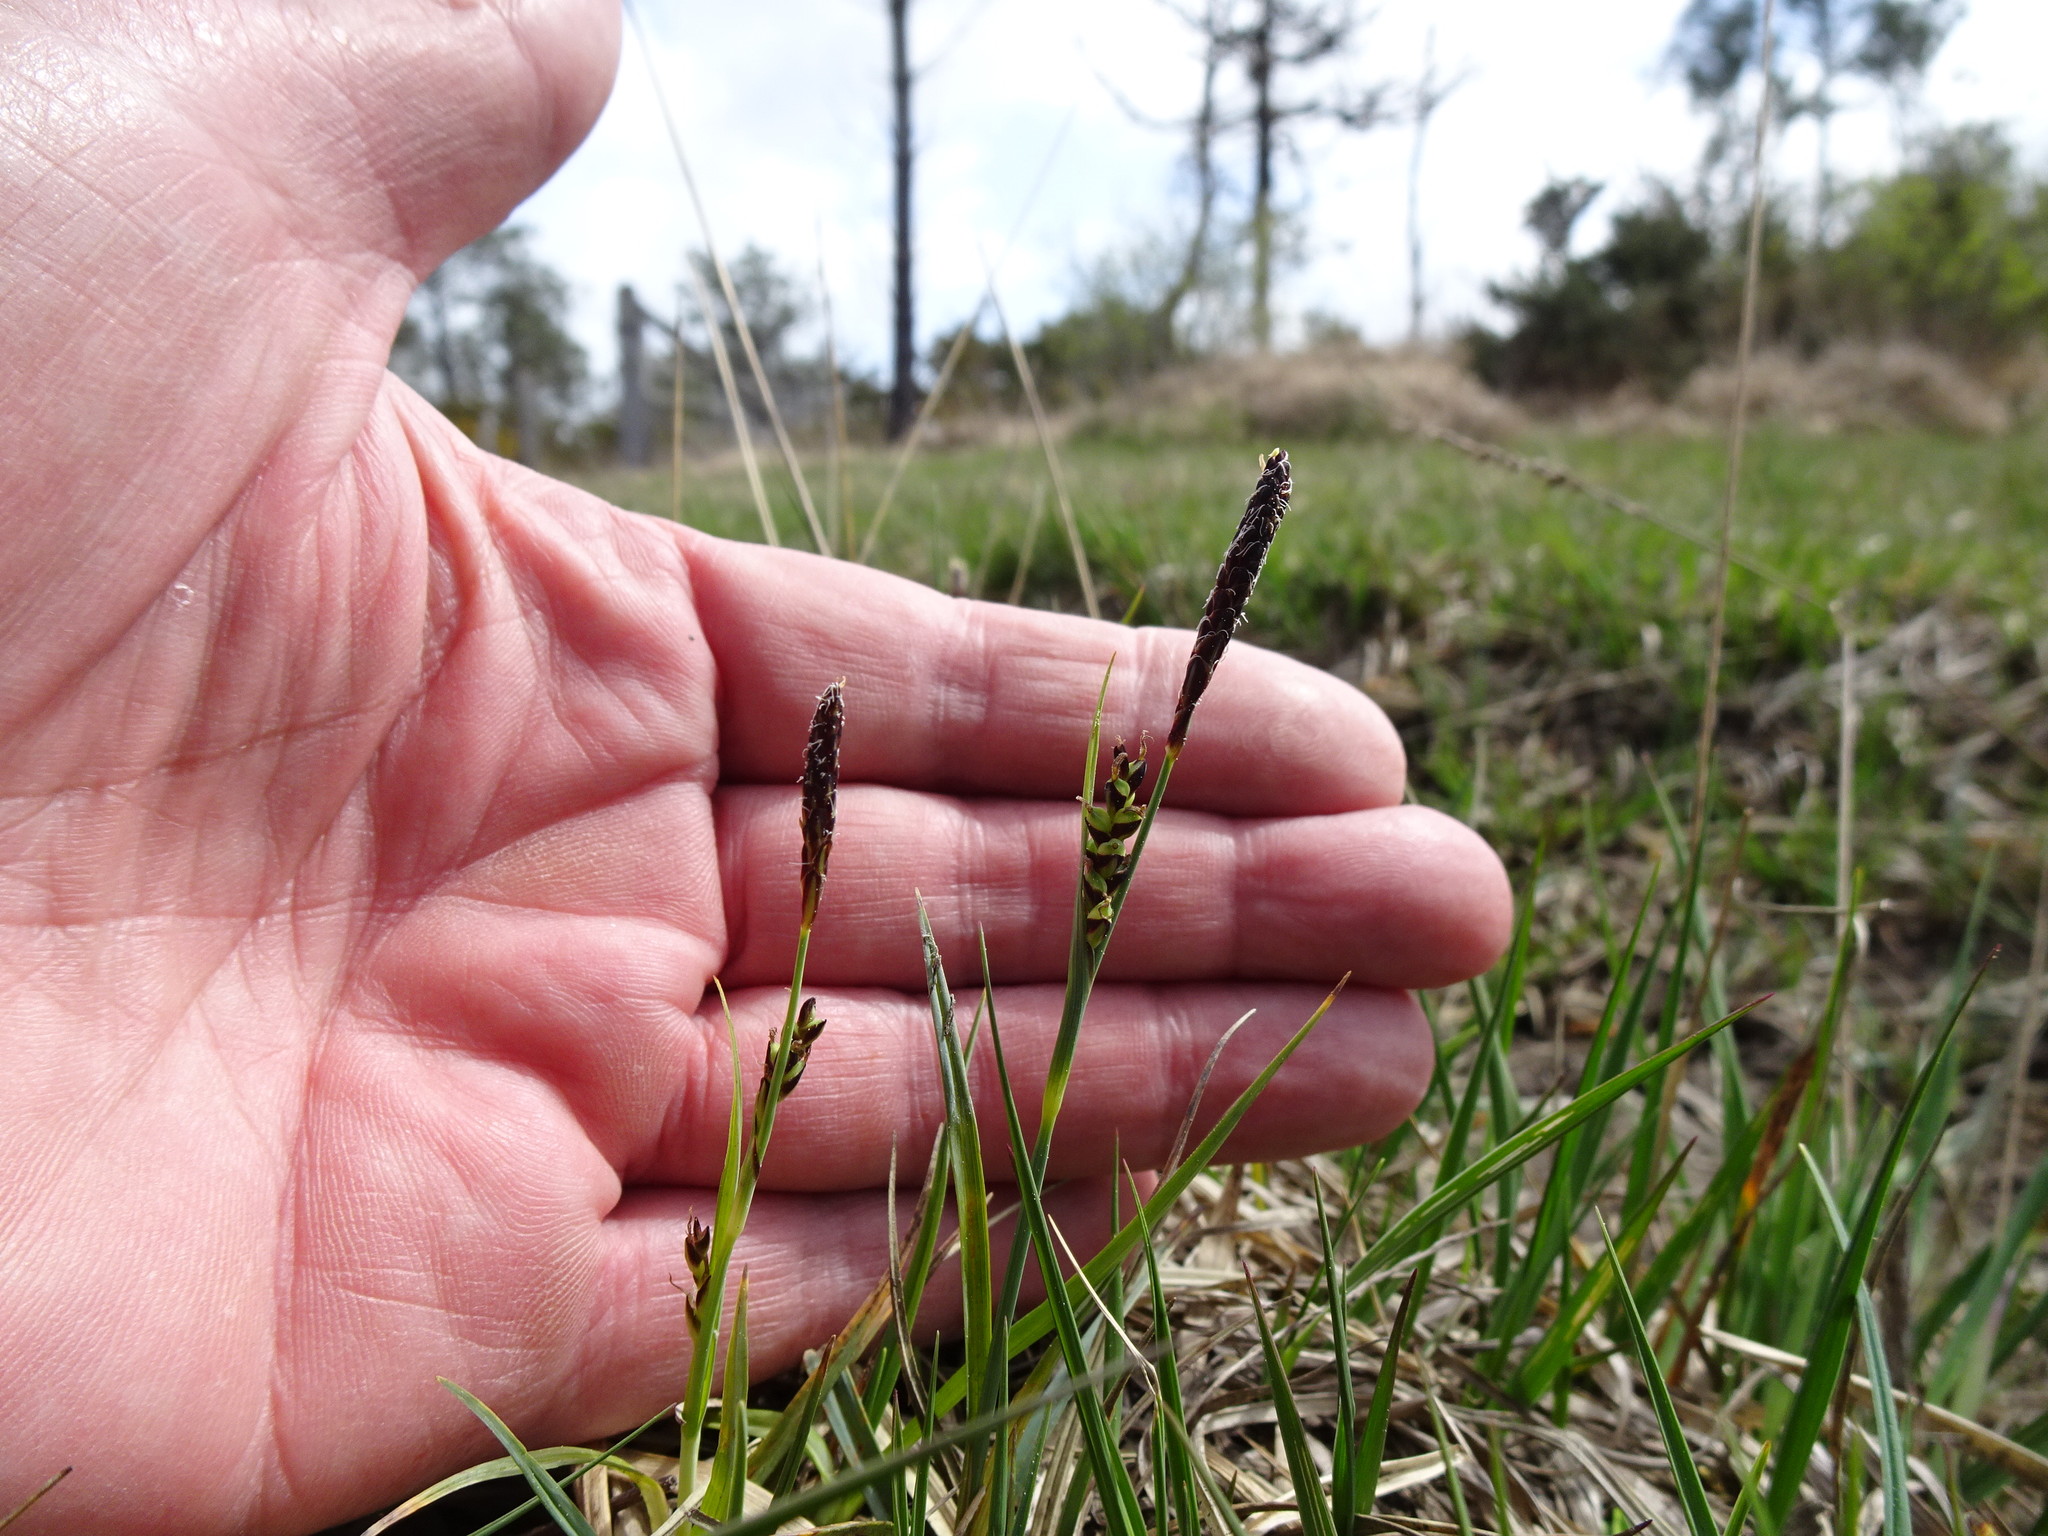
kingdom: Plantae
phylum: Tracheophyta
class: Liliopsida
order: Poales
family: Cyperaceae
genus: Carex
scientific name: Carex panicea
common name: Carnation sedge
